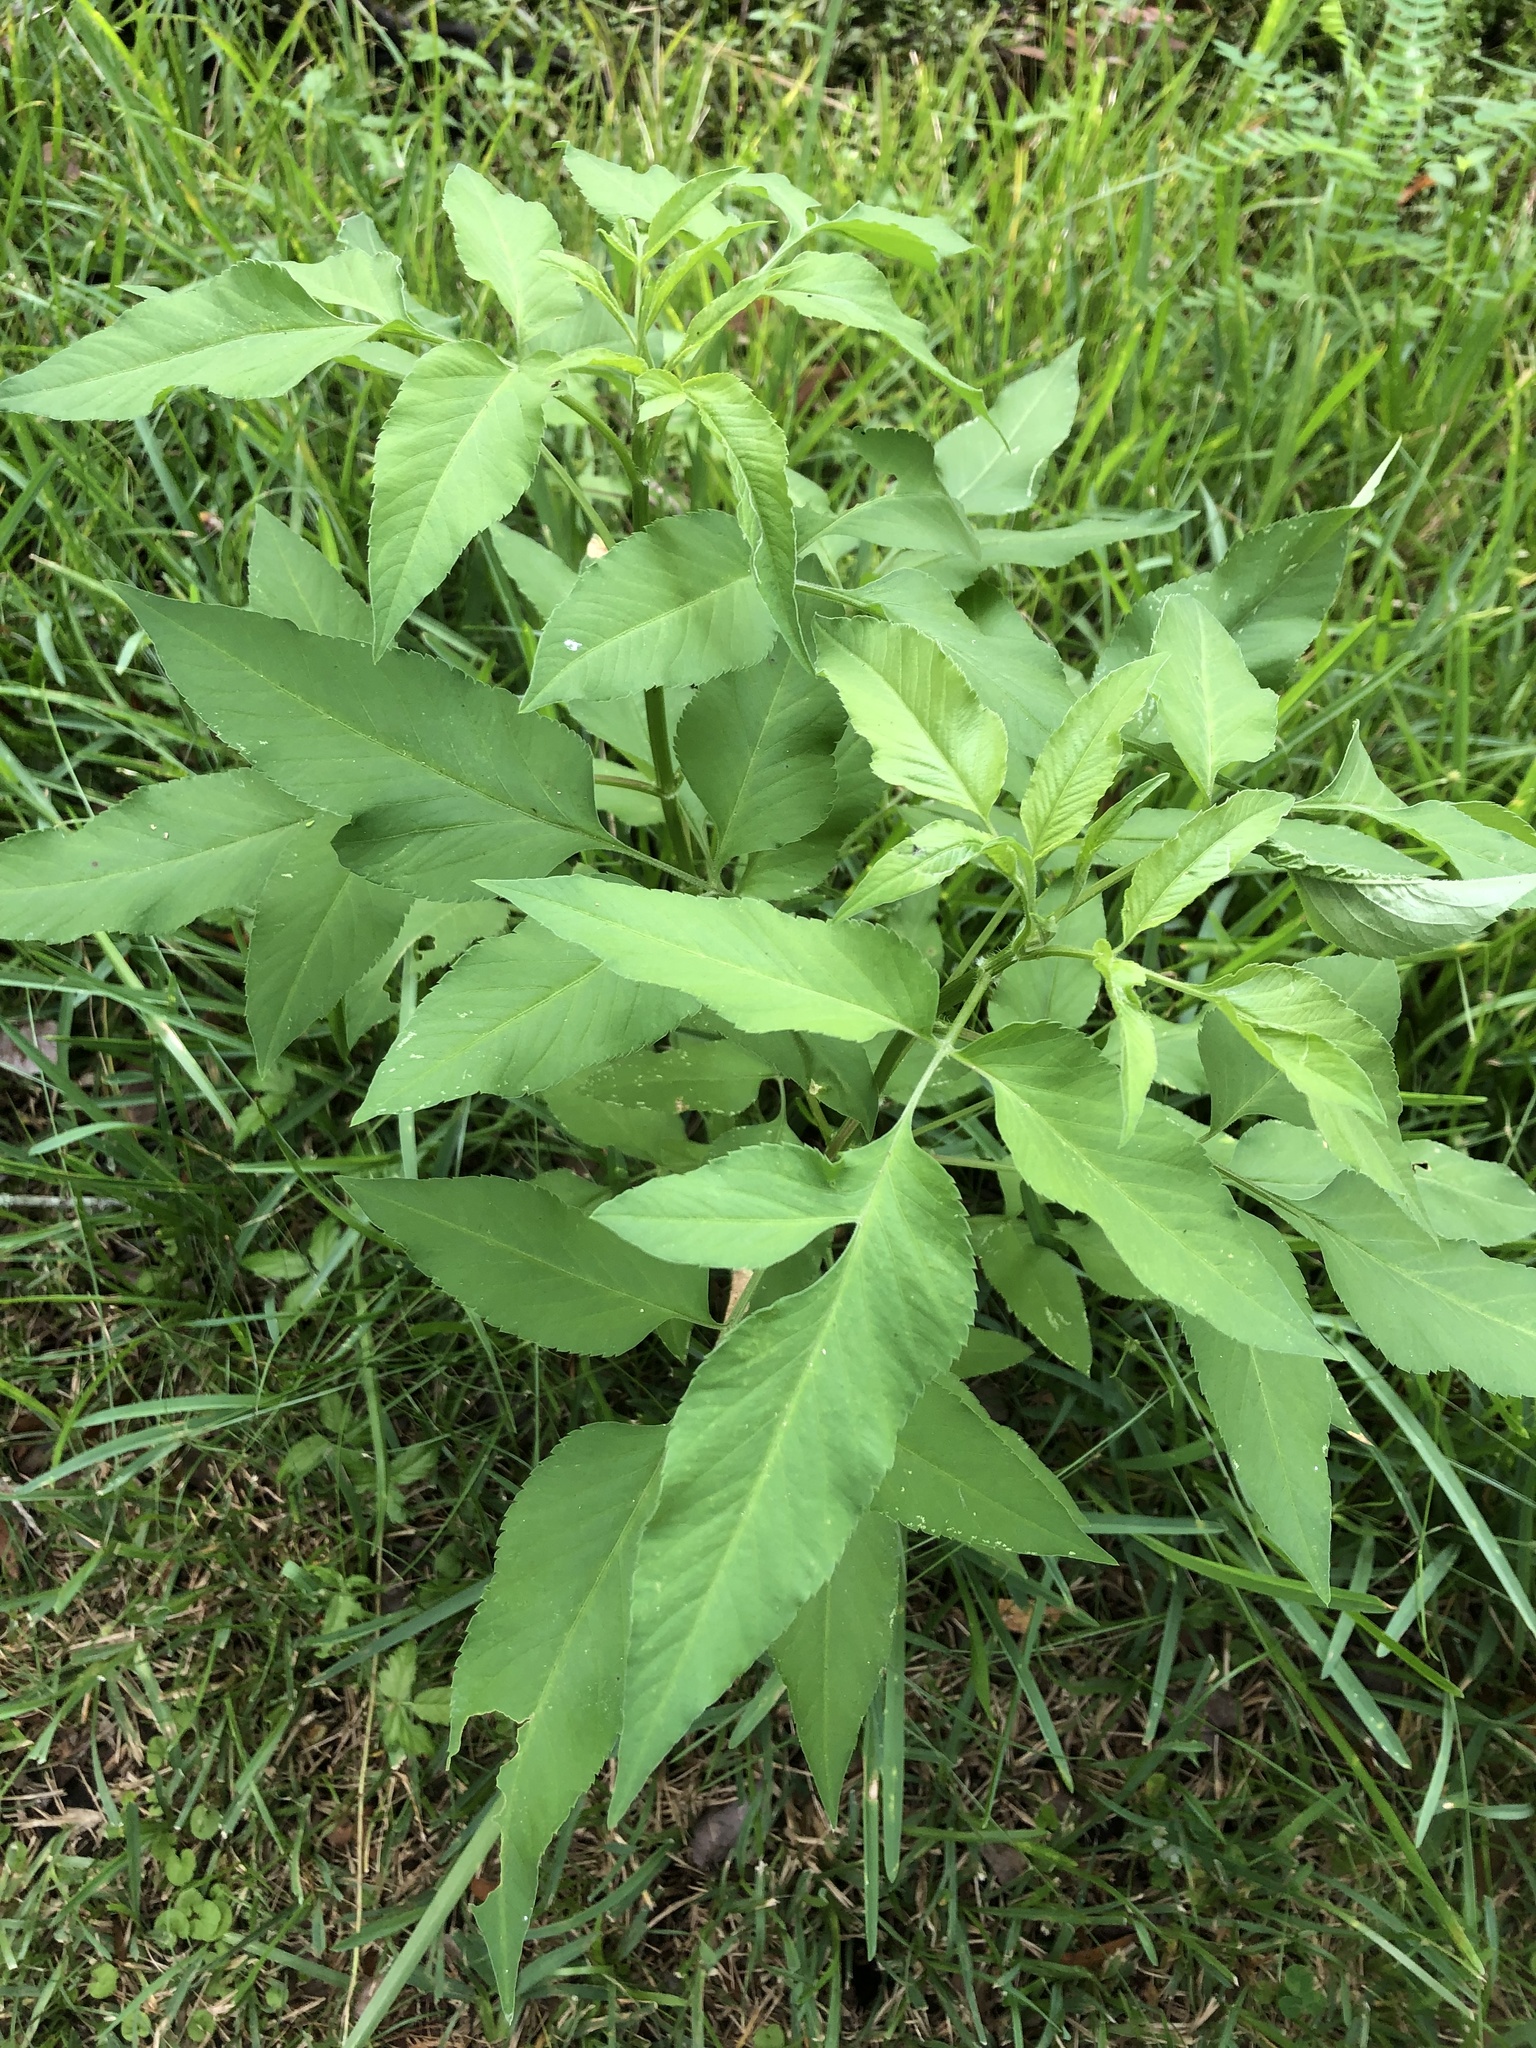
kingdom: Plantae
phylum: Tracheophyta
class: Magnoliopsida
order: Asterales
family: Asteraceae
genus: Bidens
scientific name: Bidens alba
